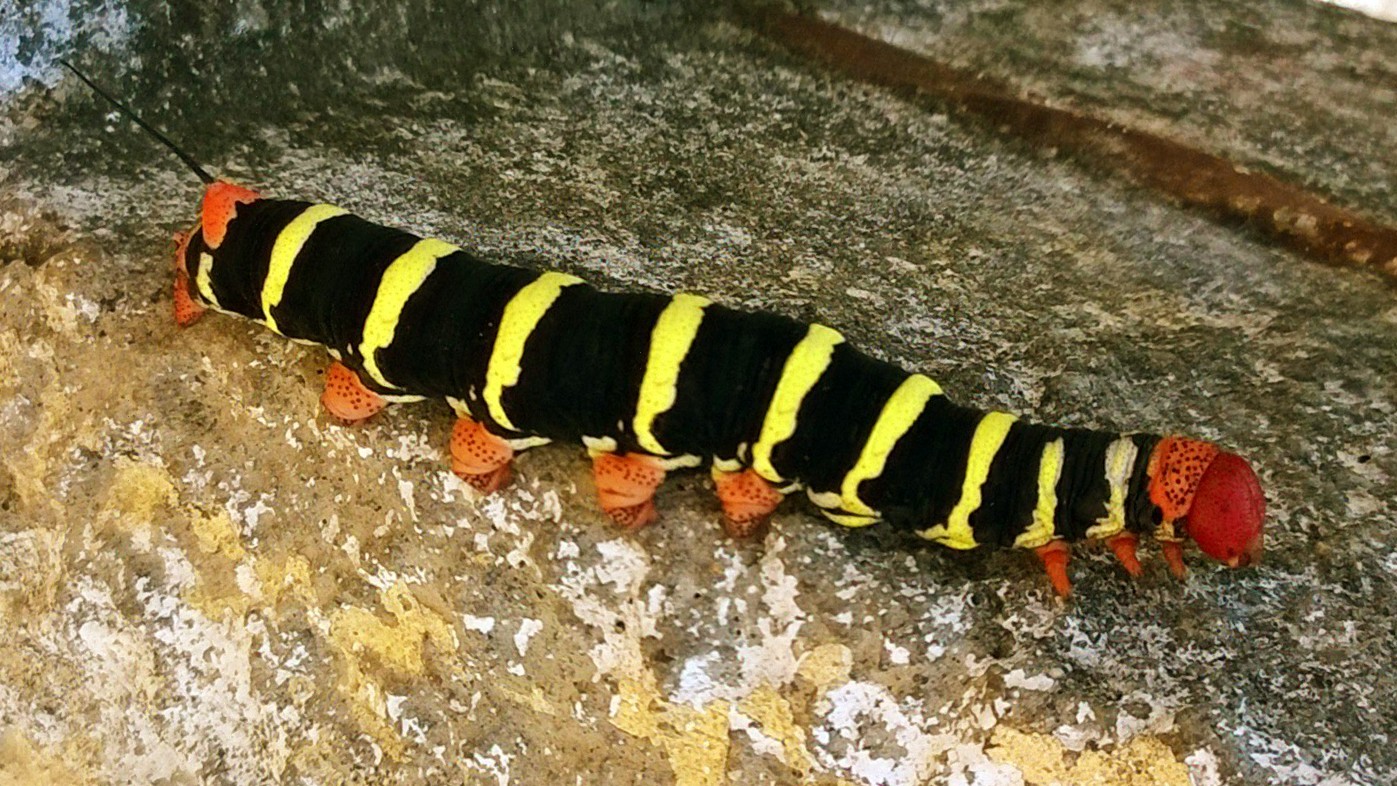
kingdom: Animalia
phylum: Arthropoda
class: Insecta
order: Lepidoptera
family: Sphingidae
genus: Pseudosphinx
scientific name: Pseudosphinx tetrio
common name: Tetrio sphinx
